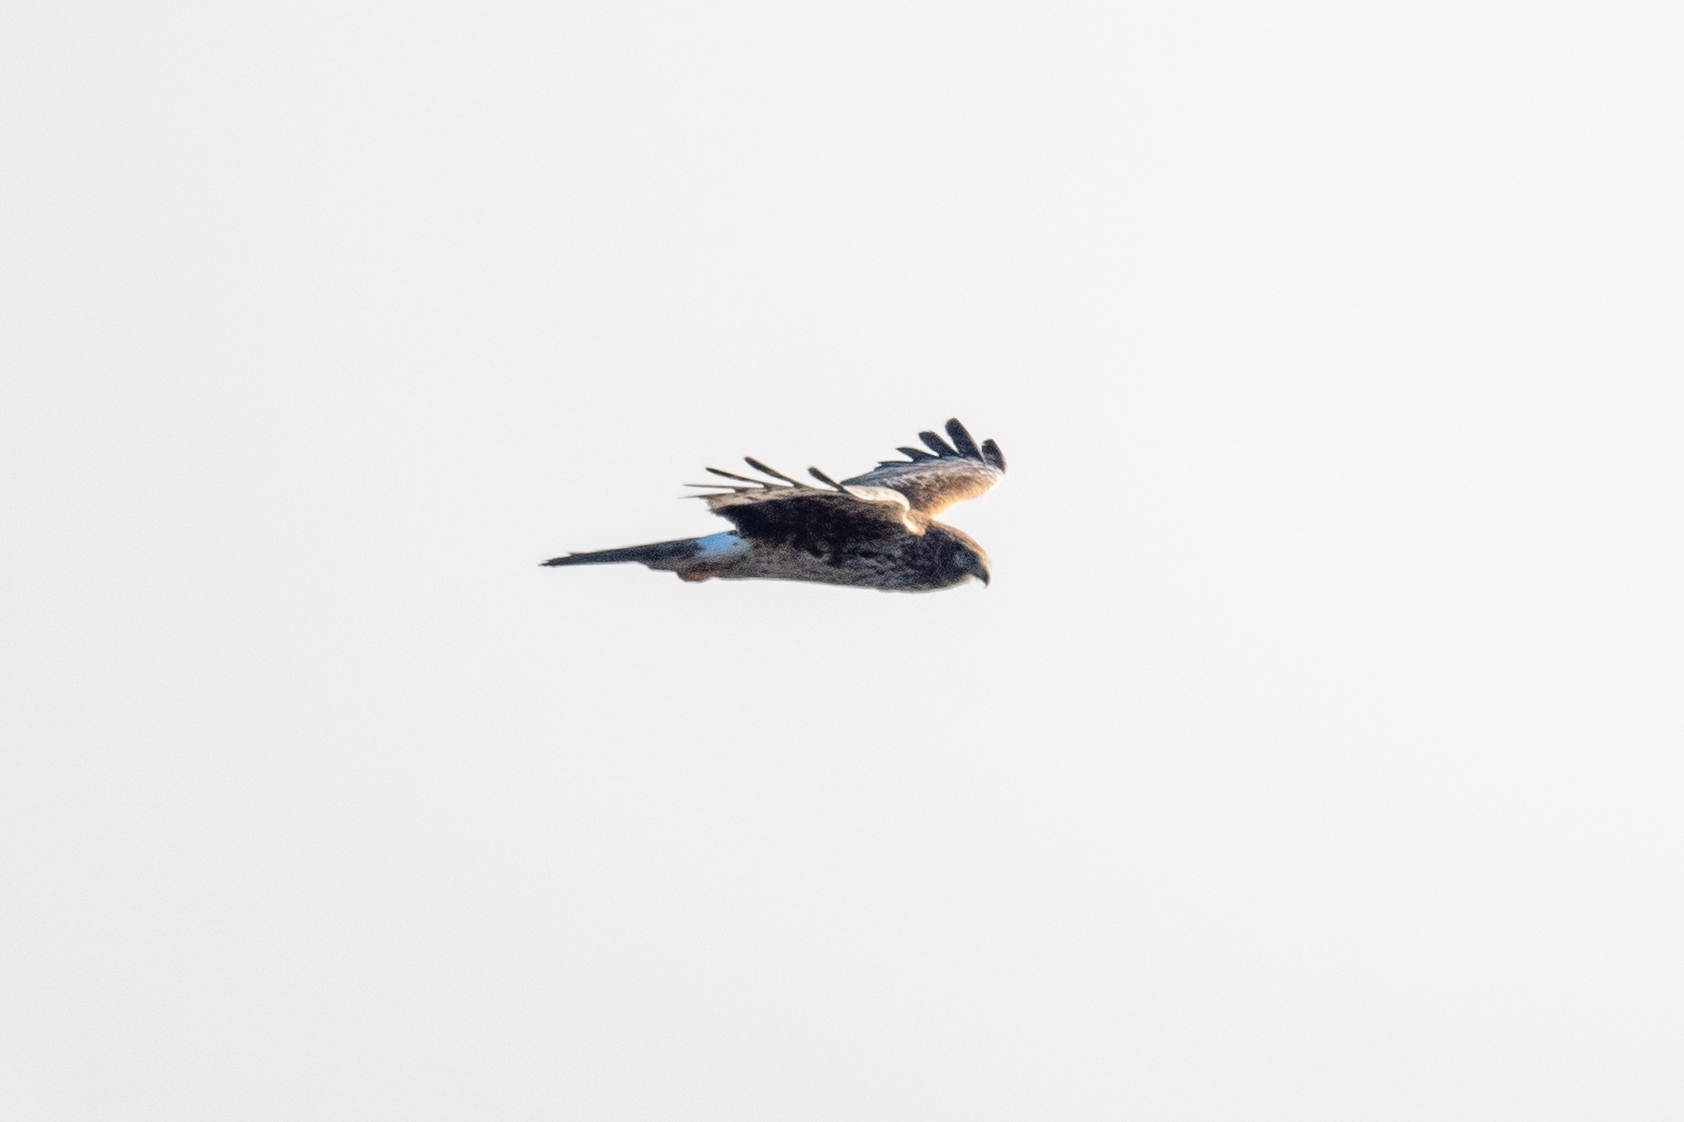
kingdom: Animalia
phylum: Chordata
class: Aves
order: Accipitriformes
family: Accipitridae
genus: Circus
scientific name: Circus cyaneus
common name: Hen harrier
